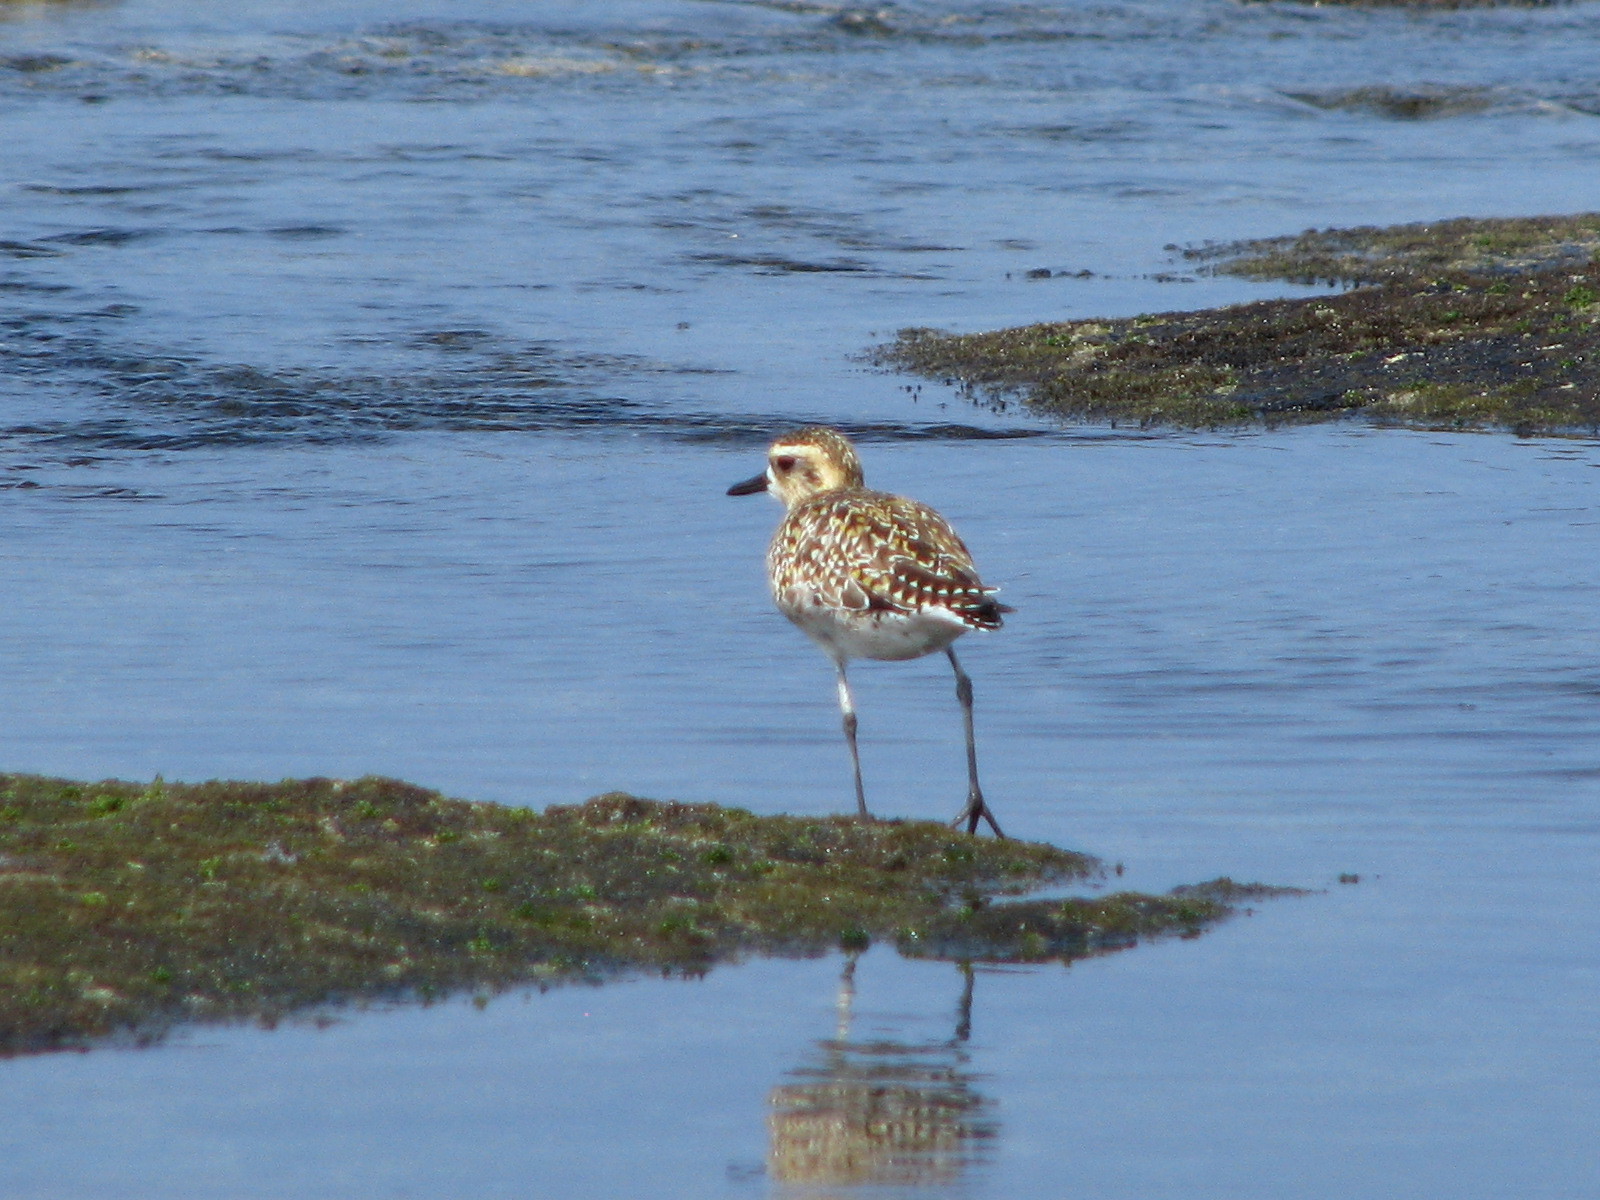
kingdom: Animalia
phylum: Chordata
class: Aves
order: Charadriiformes
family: Charadriidae
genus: Pluvialis
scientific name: Pluvialis fulva
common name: Pacific golden plover
